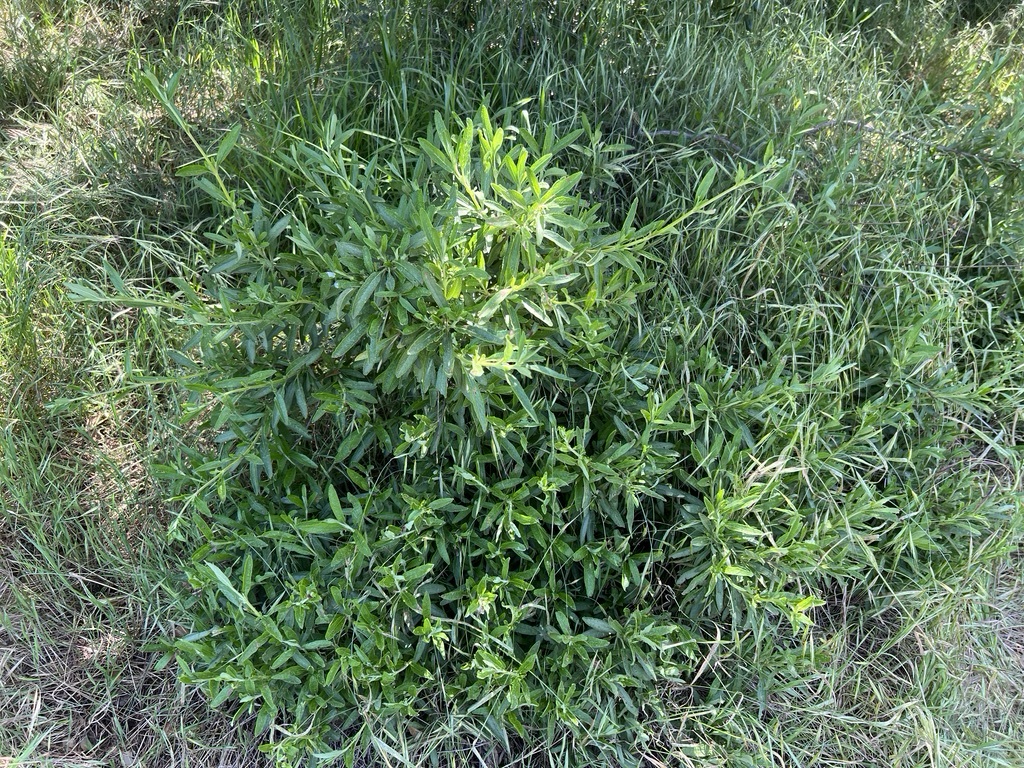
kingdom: Plantae
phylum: Tracheophyta
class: Magnoliopsida
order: Lamiales
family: Lamiaceae
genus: Salvia
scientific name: Salvia mellifera
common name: Black sage
